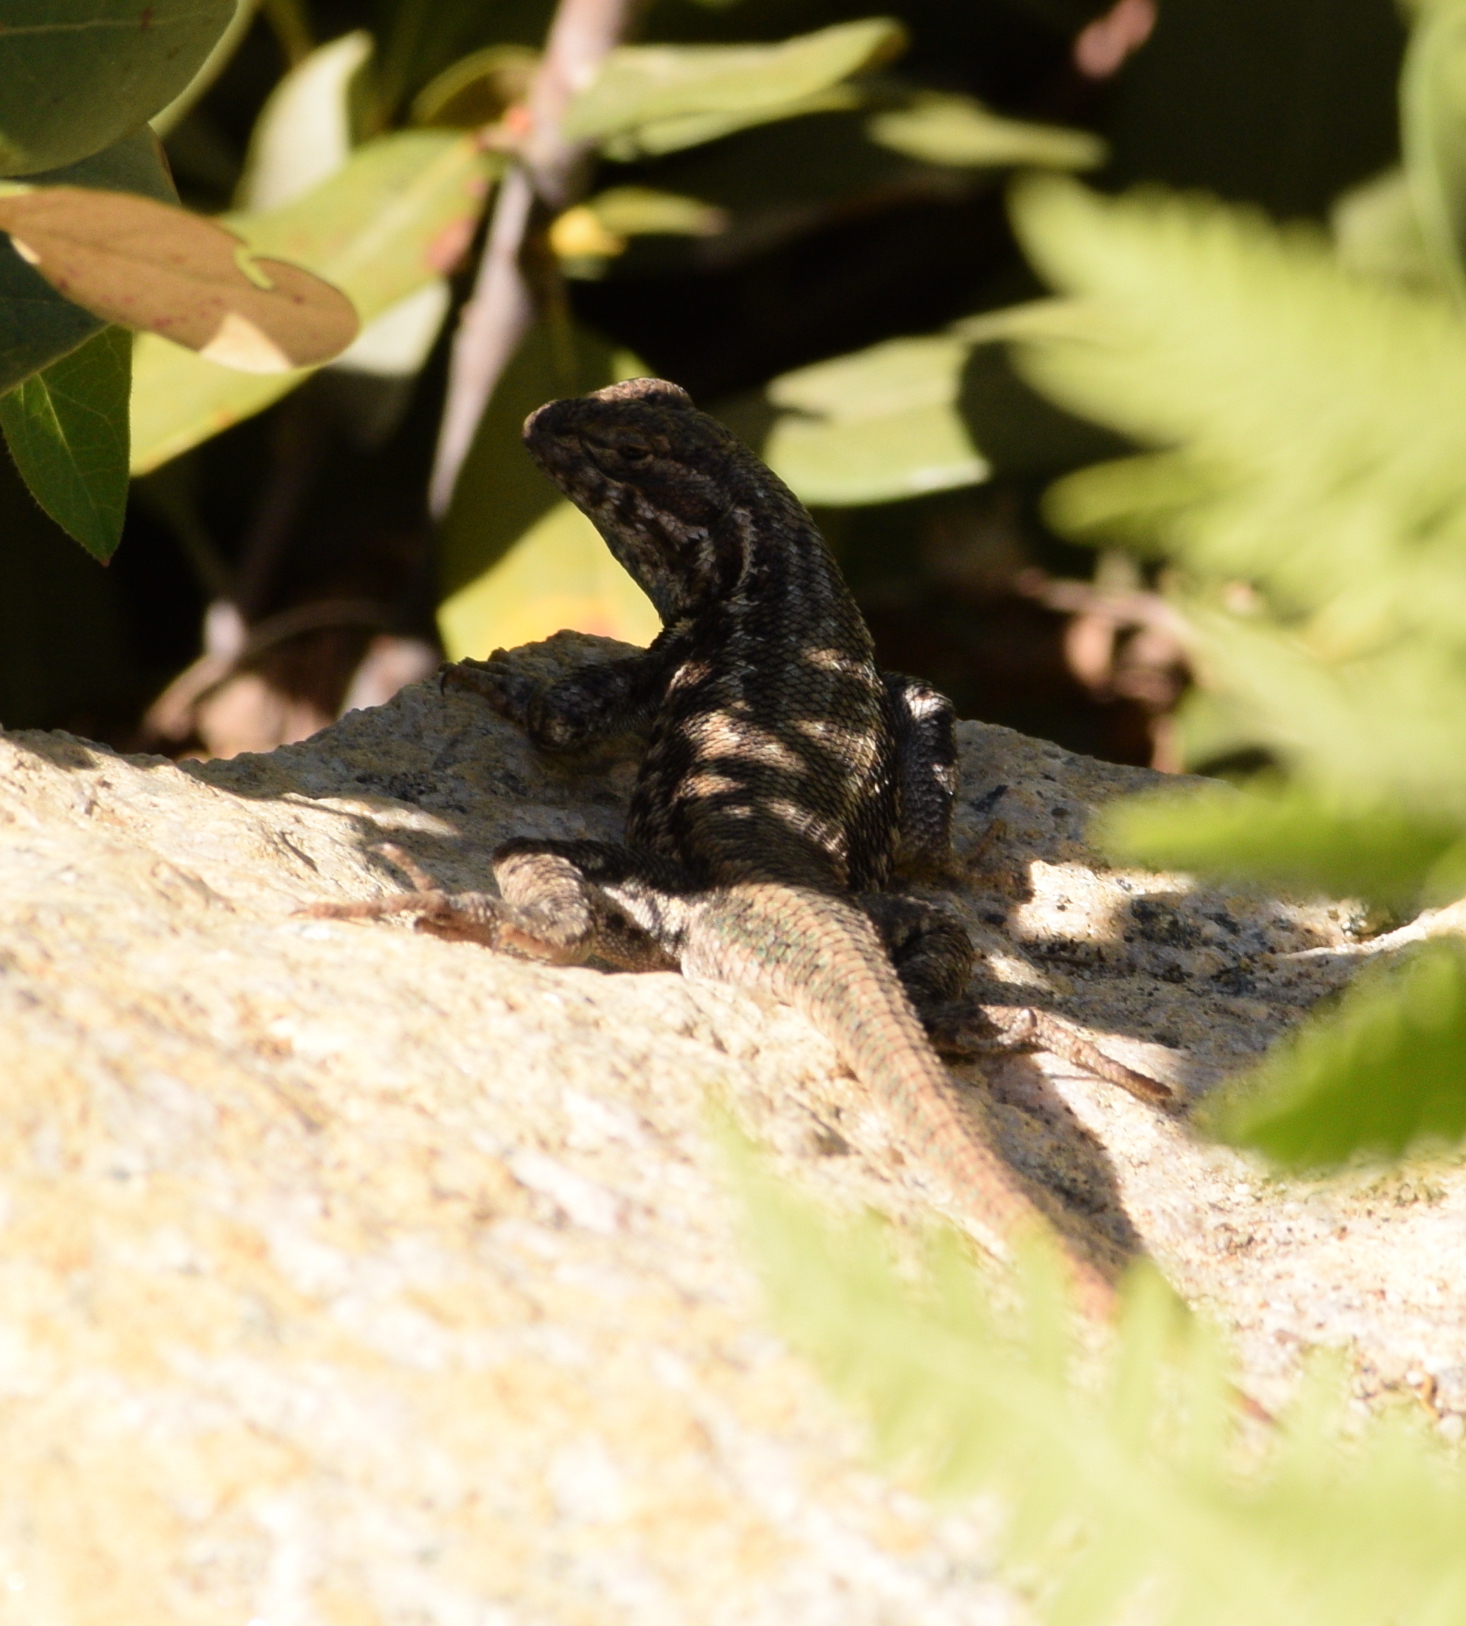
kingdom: Animalia
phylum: Chordata
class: Squamata
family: Phrynosomatidae
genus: Sceloporus
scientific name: Sceloporus graciosus
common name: Sagebrush lizard
